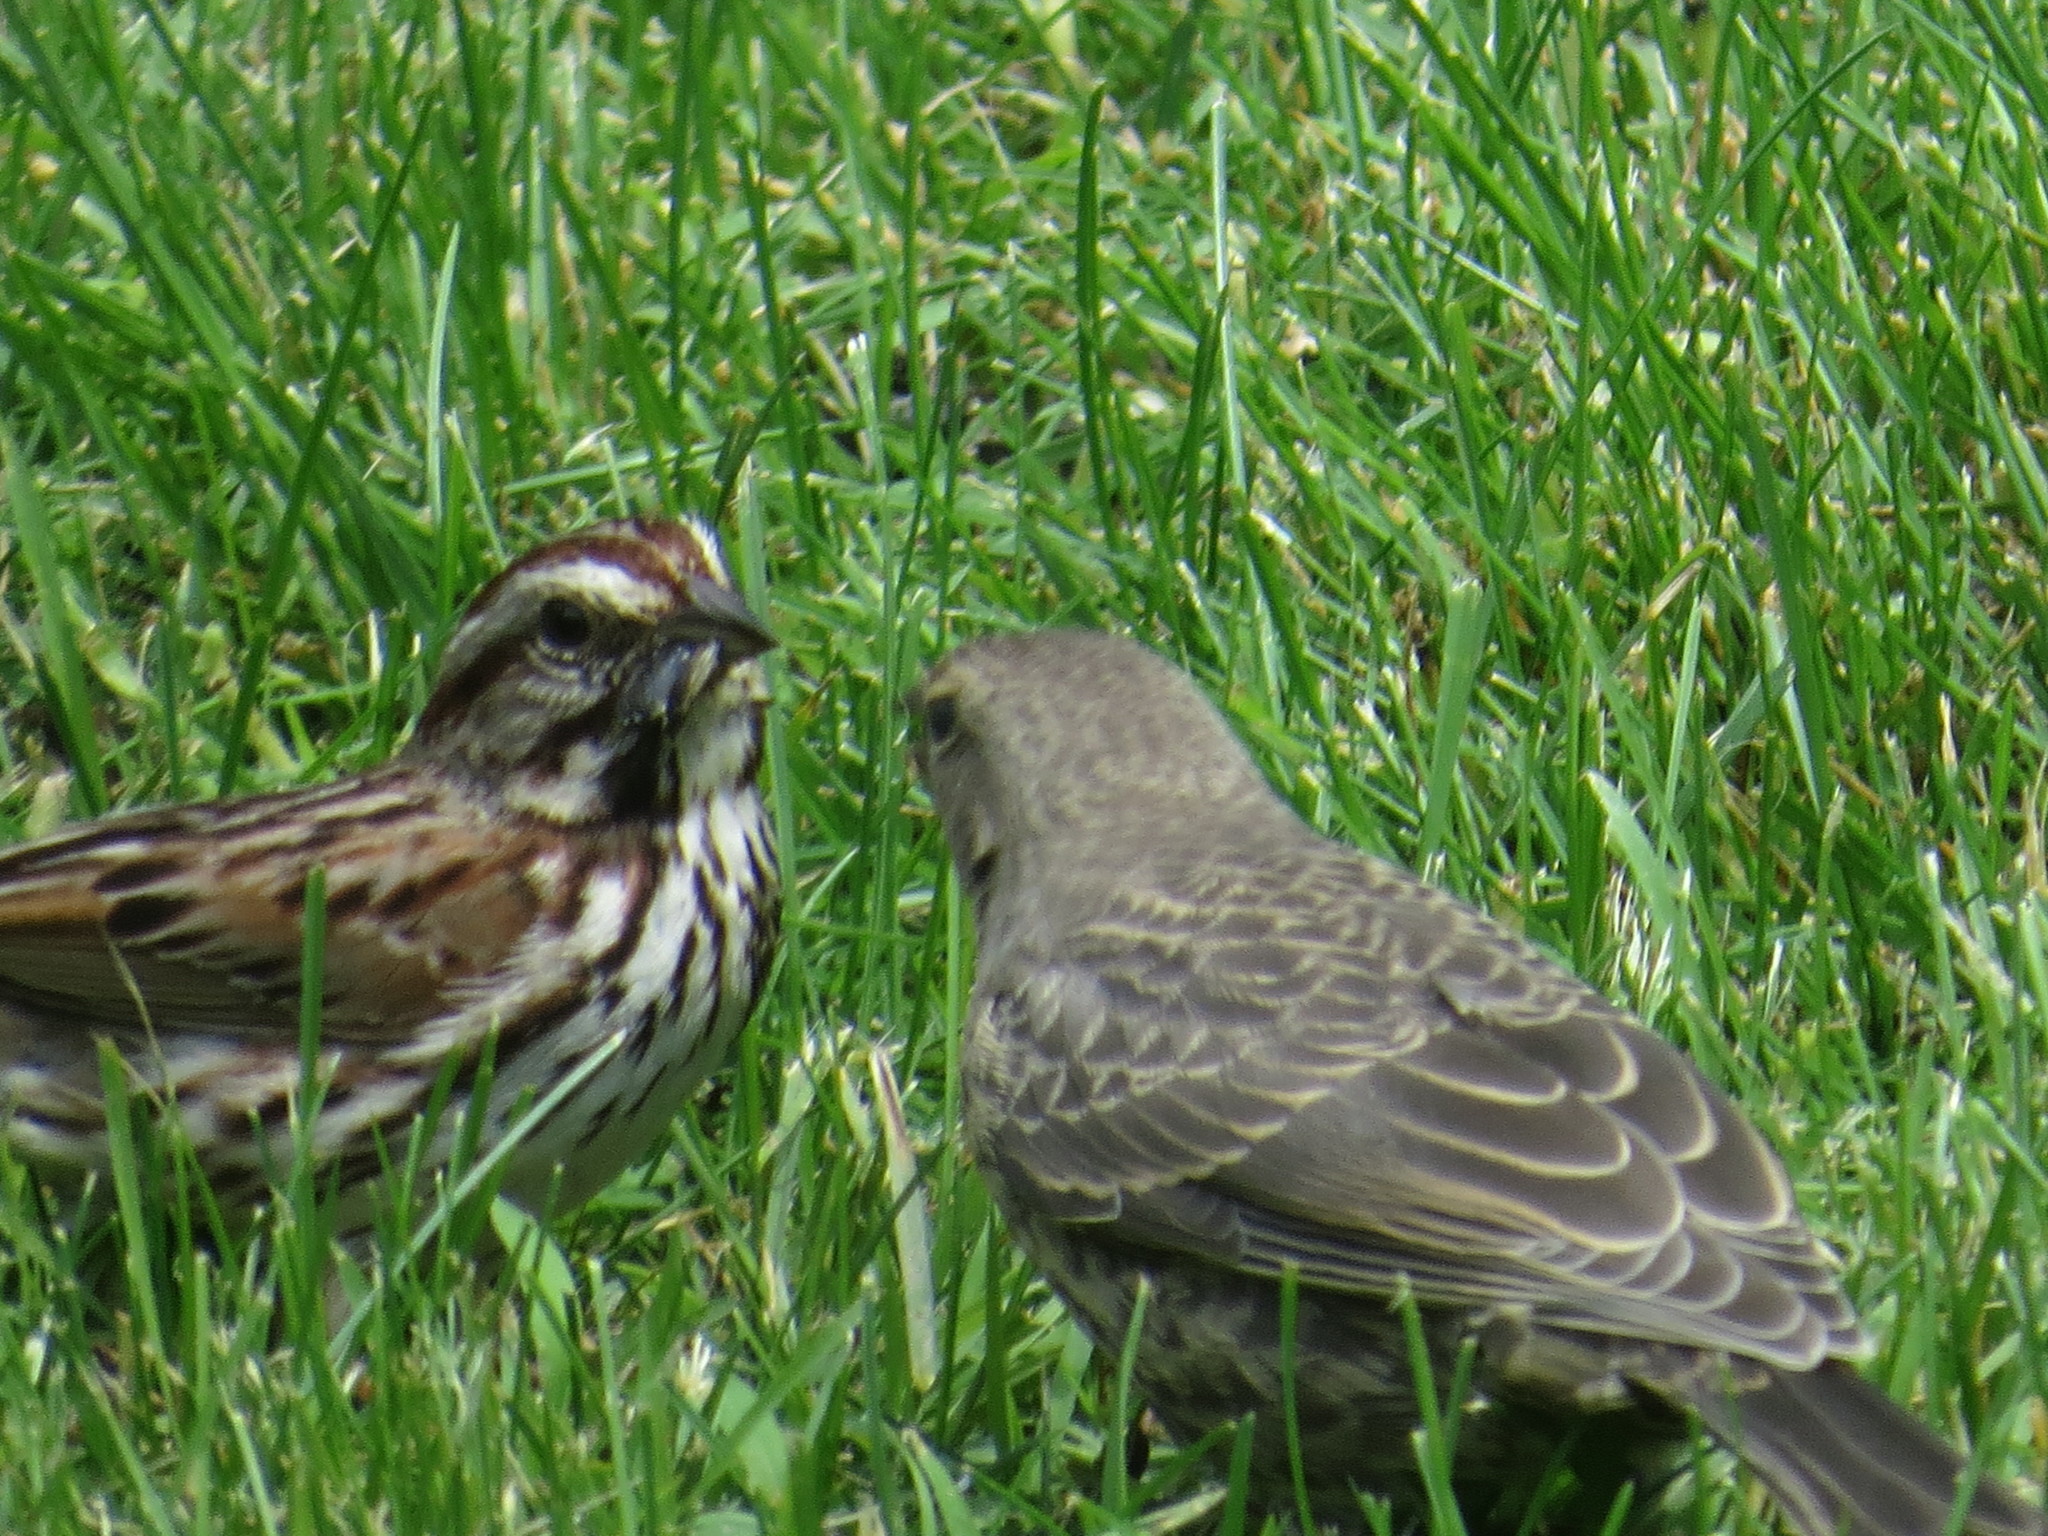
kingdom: Animalia
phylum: Chordata
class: Aves
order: Passeriformes
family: Passerellidae
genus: Melospiza
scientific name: Melospiza melodia
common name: Song sparrow
